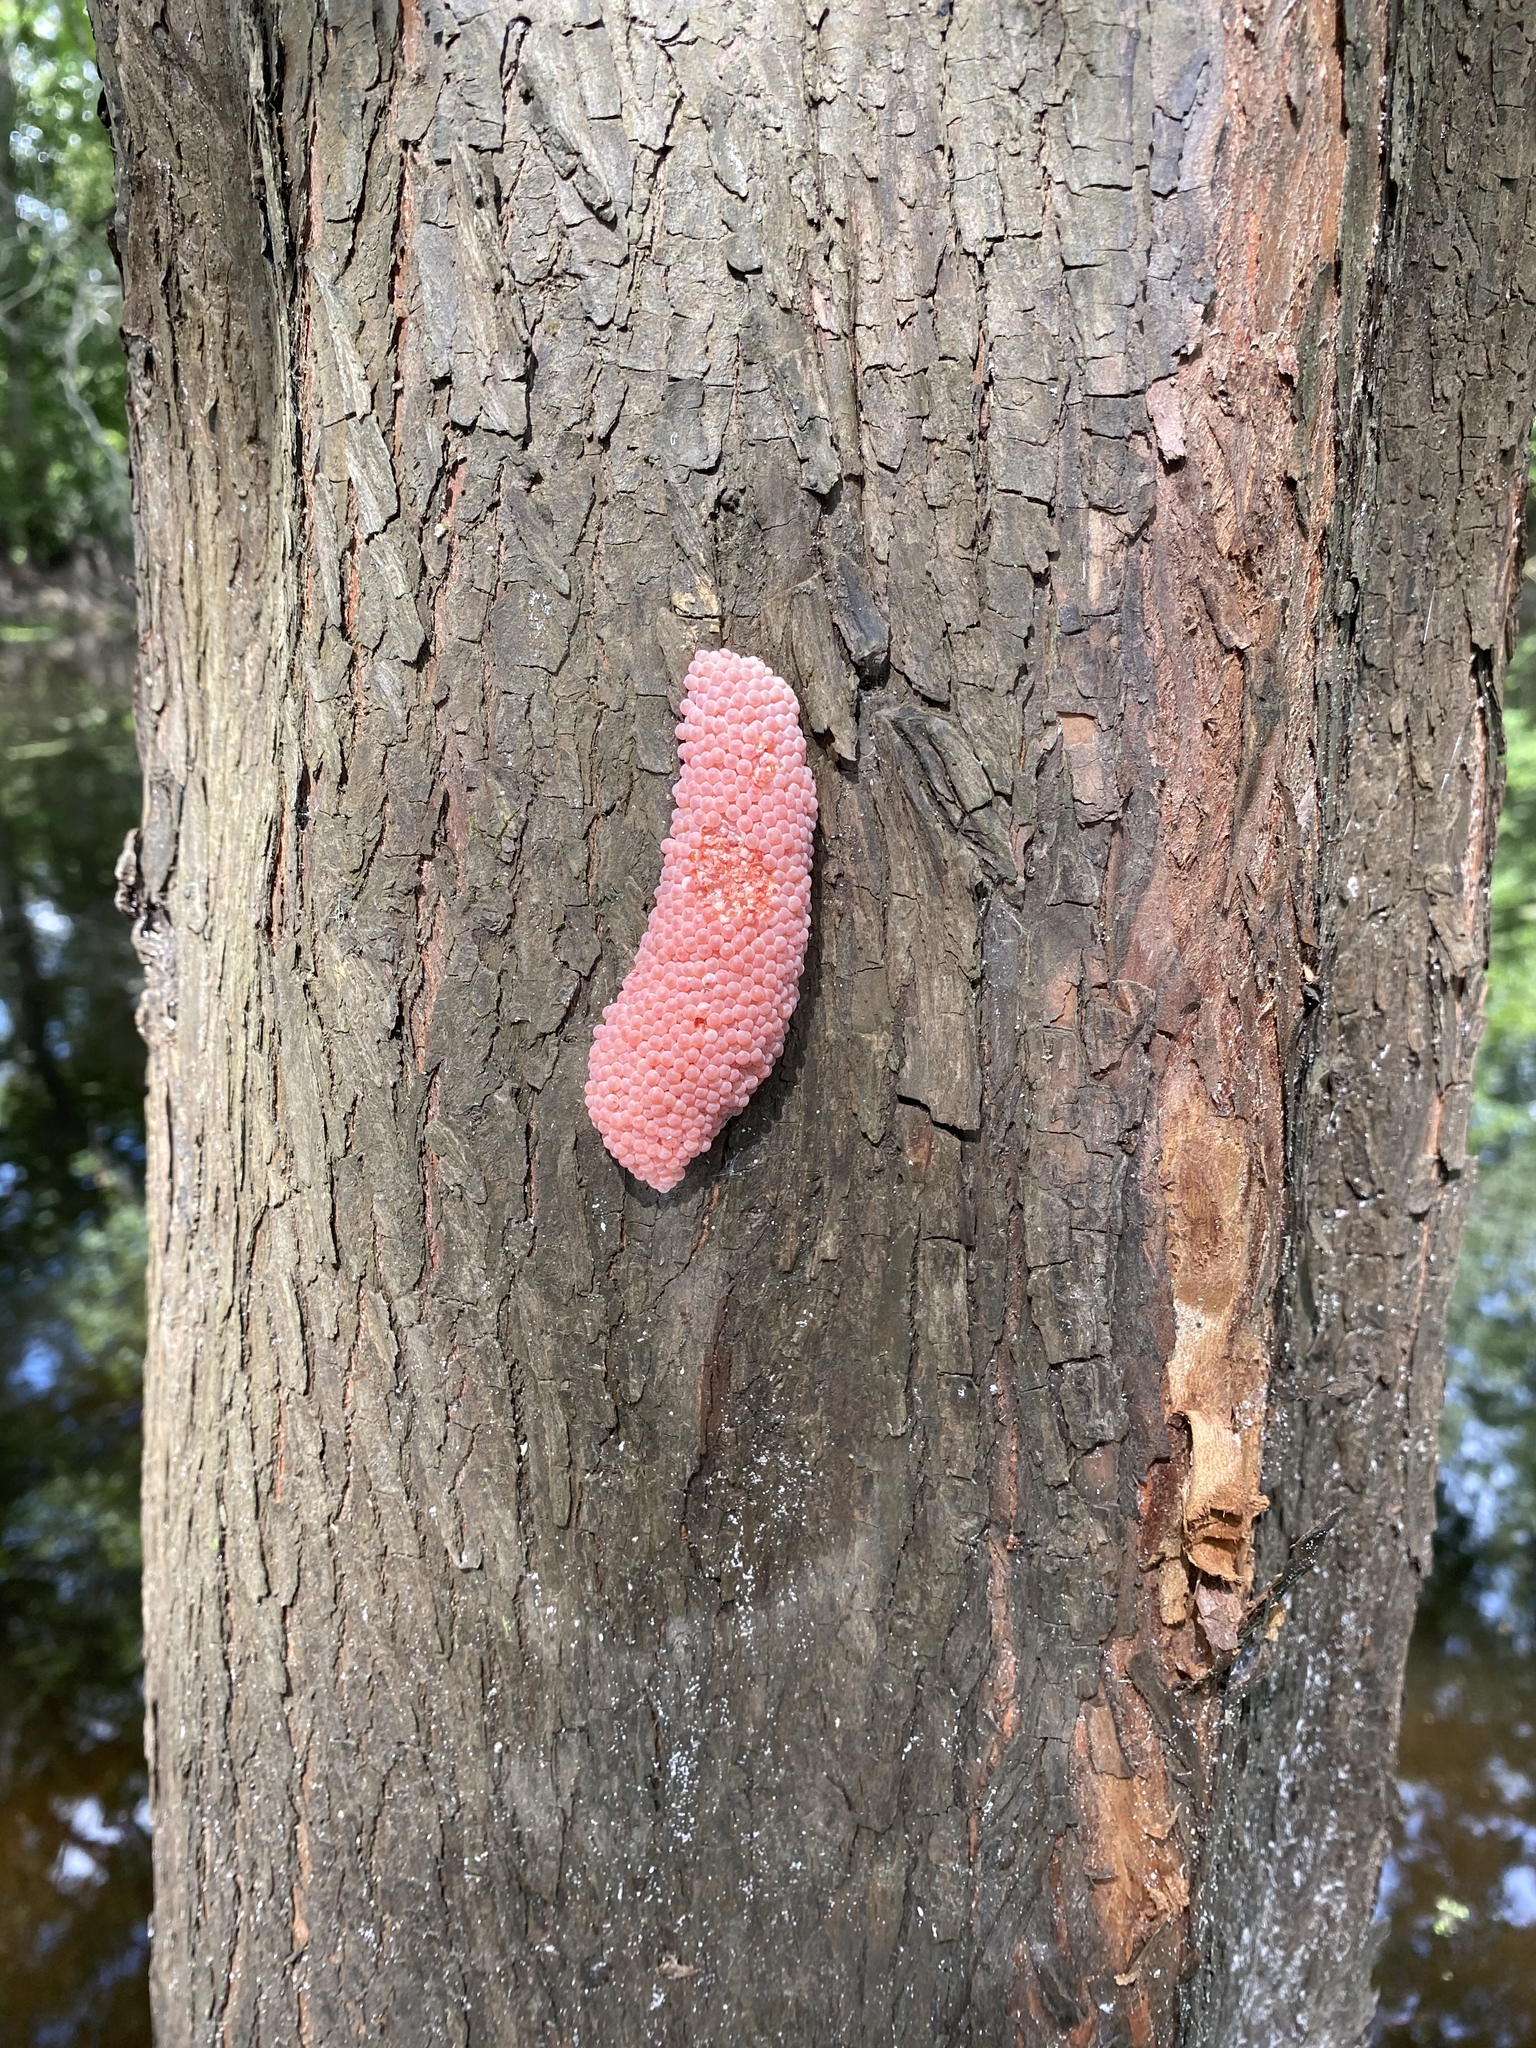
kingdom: Animalia
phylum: Mollusca
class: Gastropoda
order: Architaenioglossa
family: Ampullariidae
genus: Pomacea
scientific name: Pomacea maculata
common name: Giant applesnail
